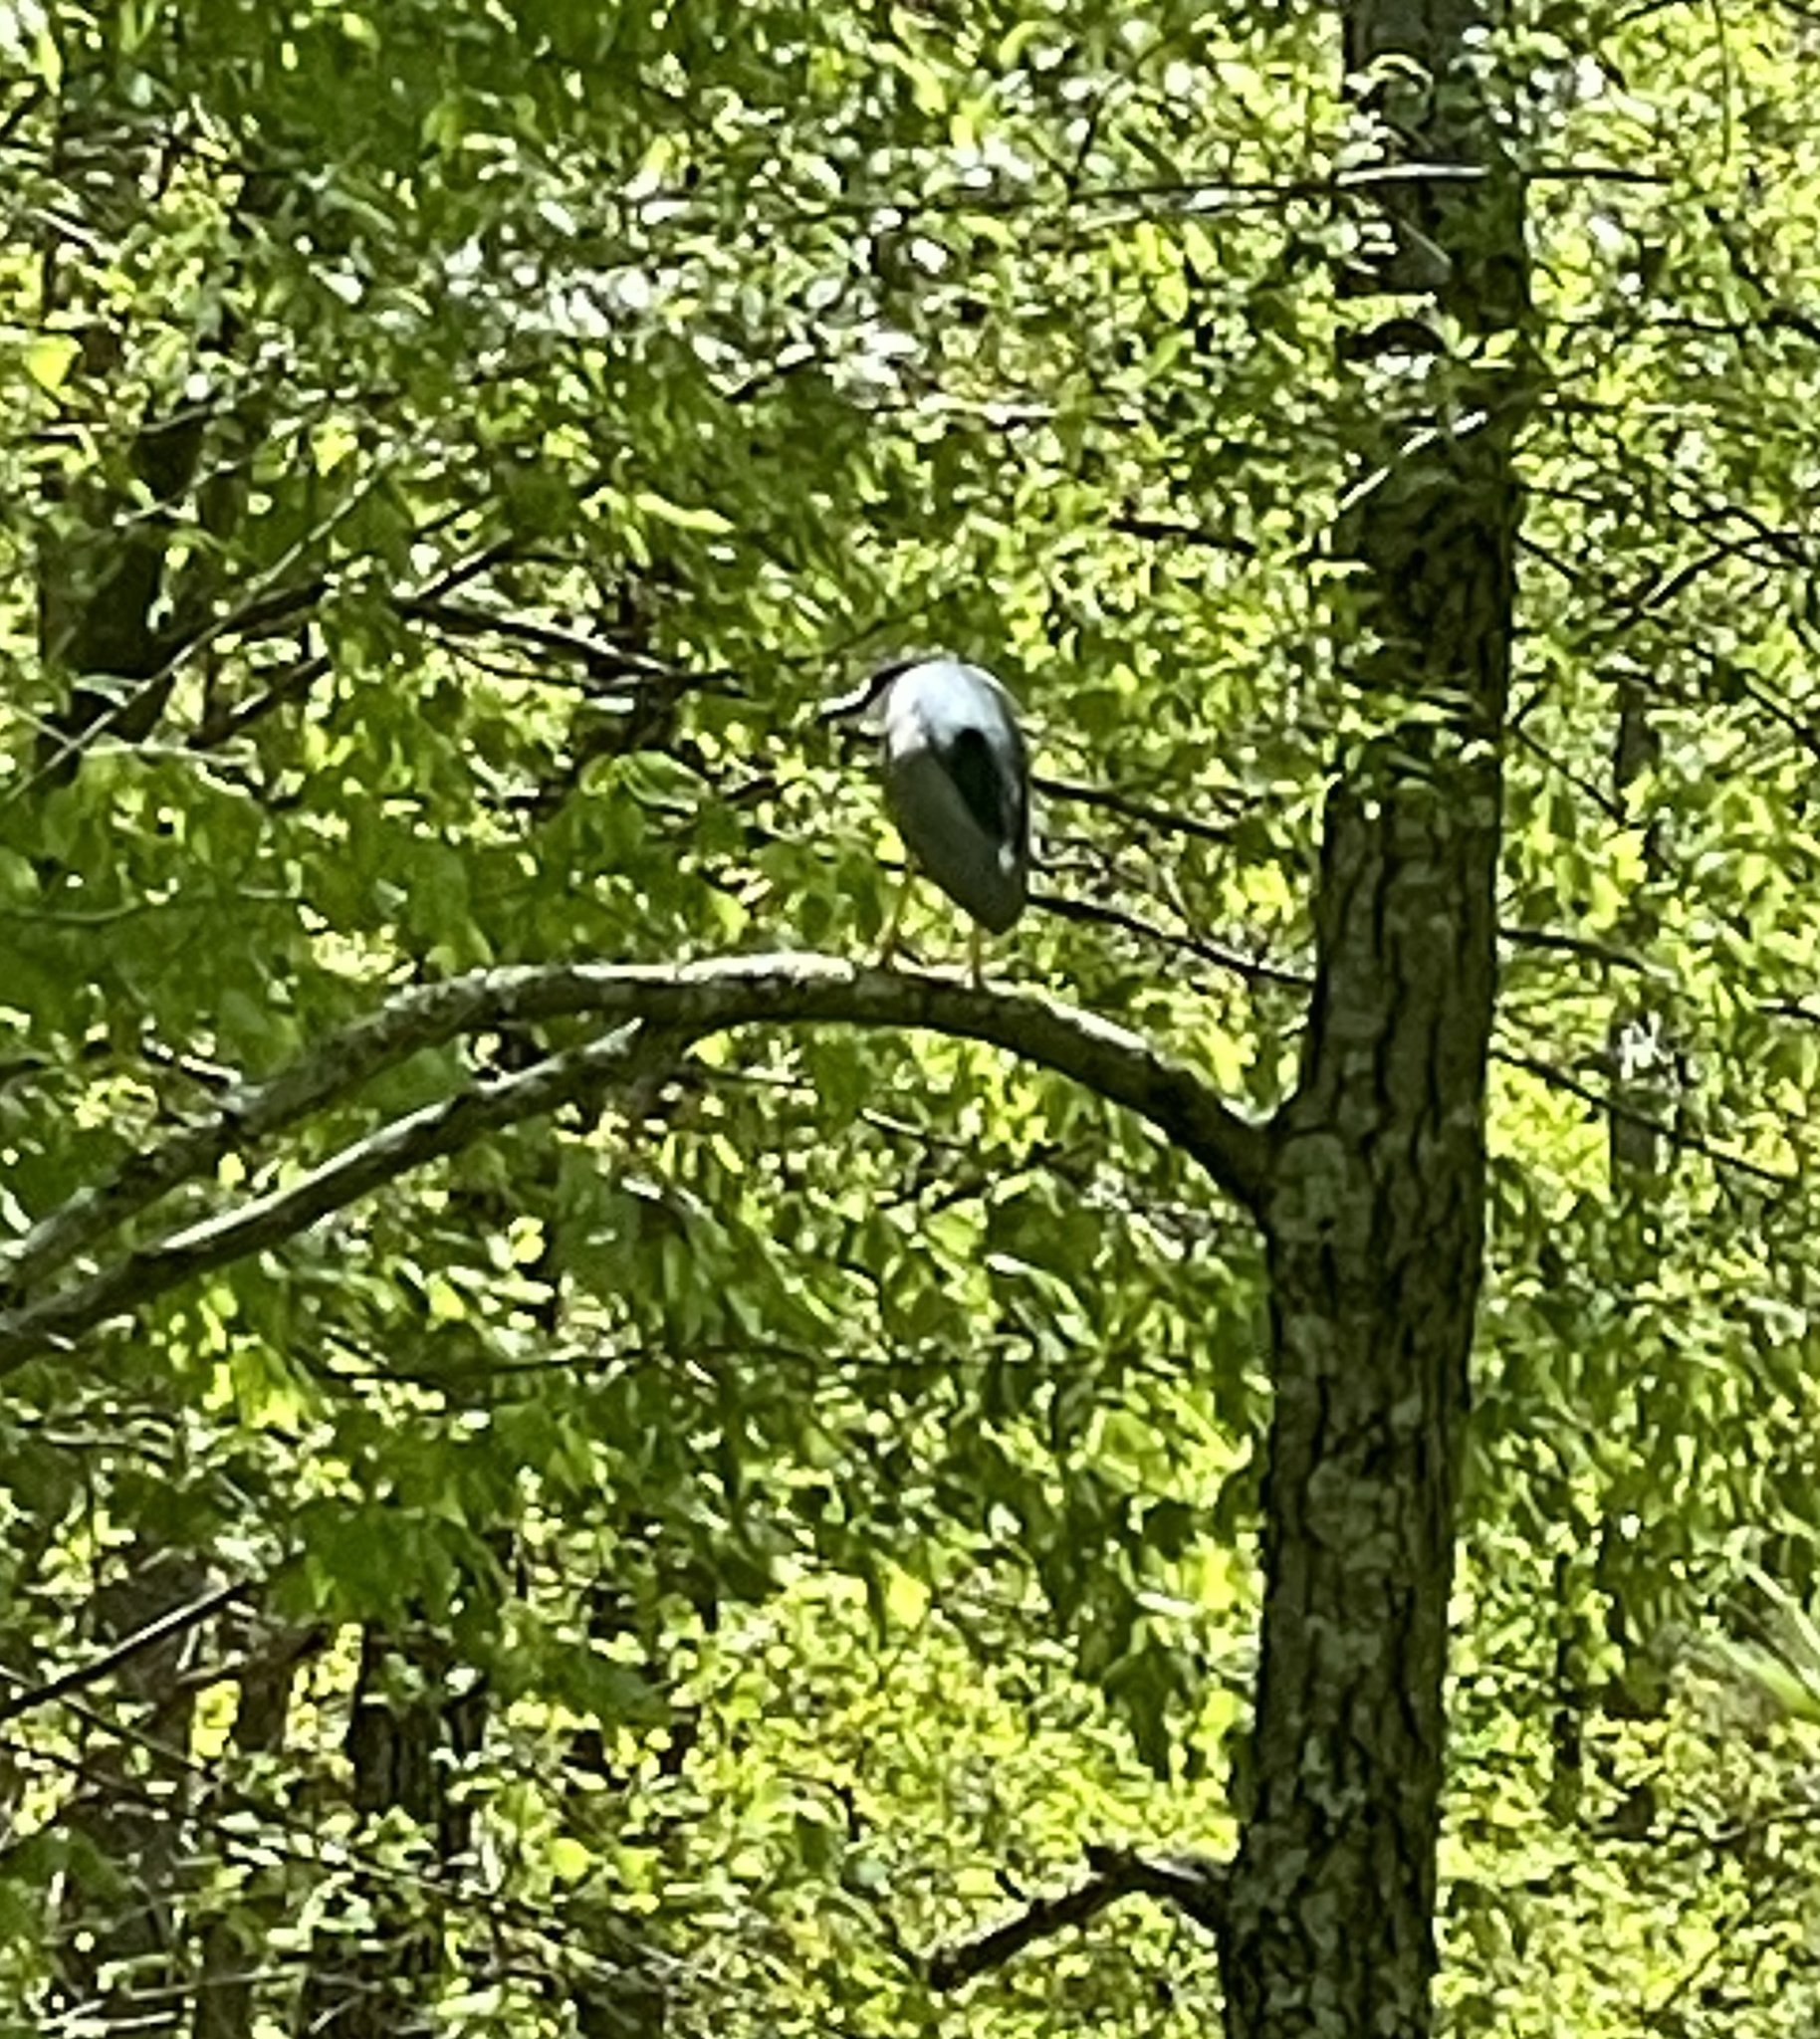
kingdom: Animalia
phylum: Chordata
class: Aves
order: Pelecaniformes
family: Ardeidae
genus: Nycticorax
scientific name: Nycticorax nycticorax
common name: Black-crowned night heron
